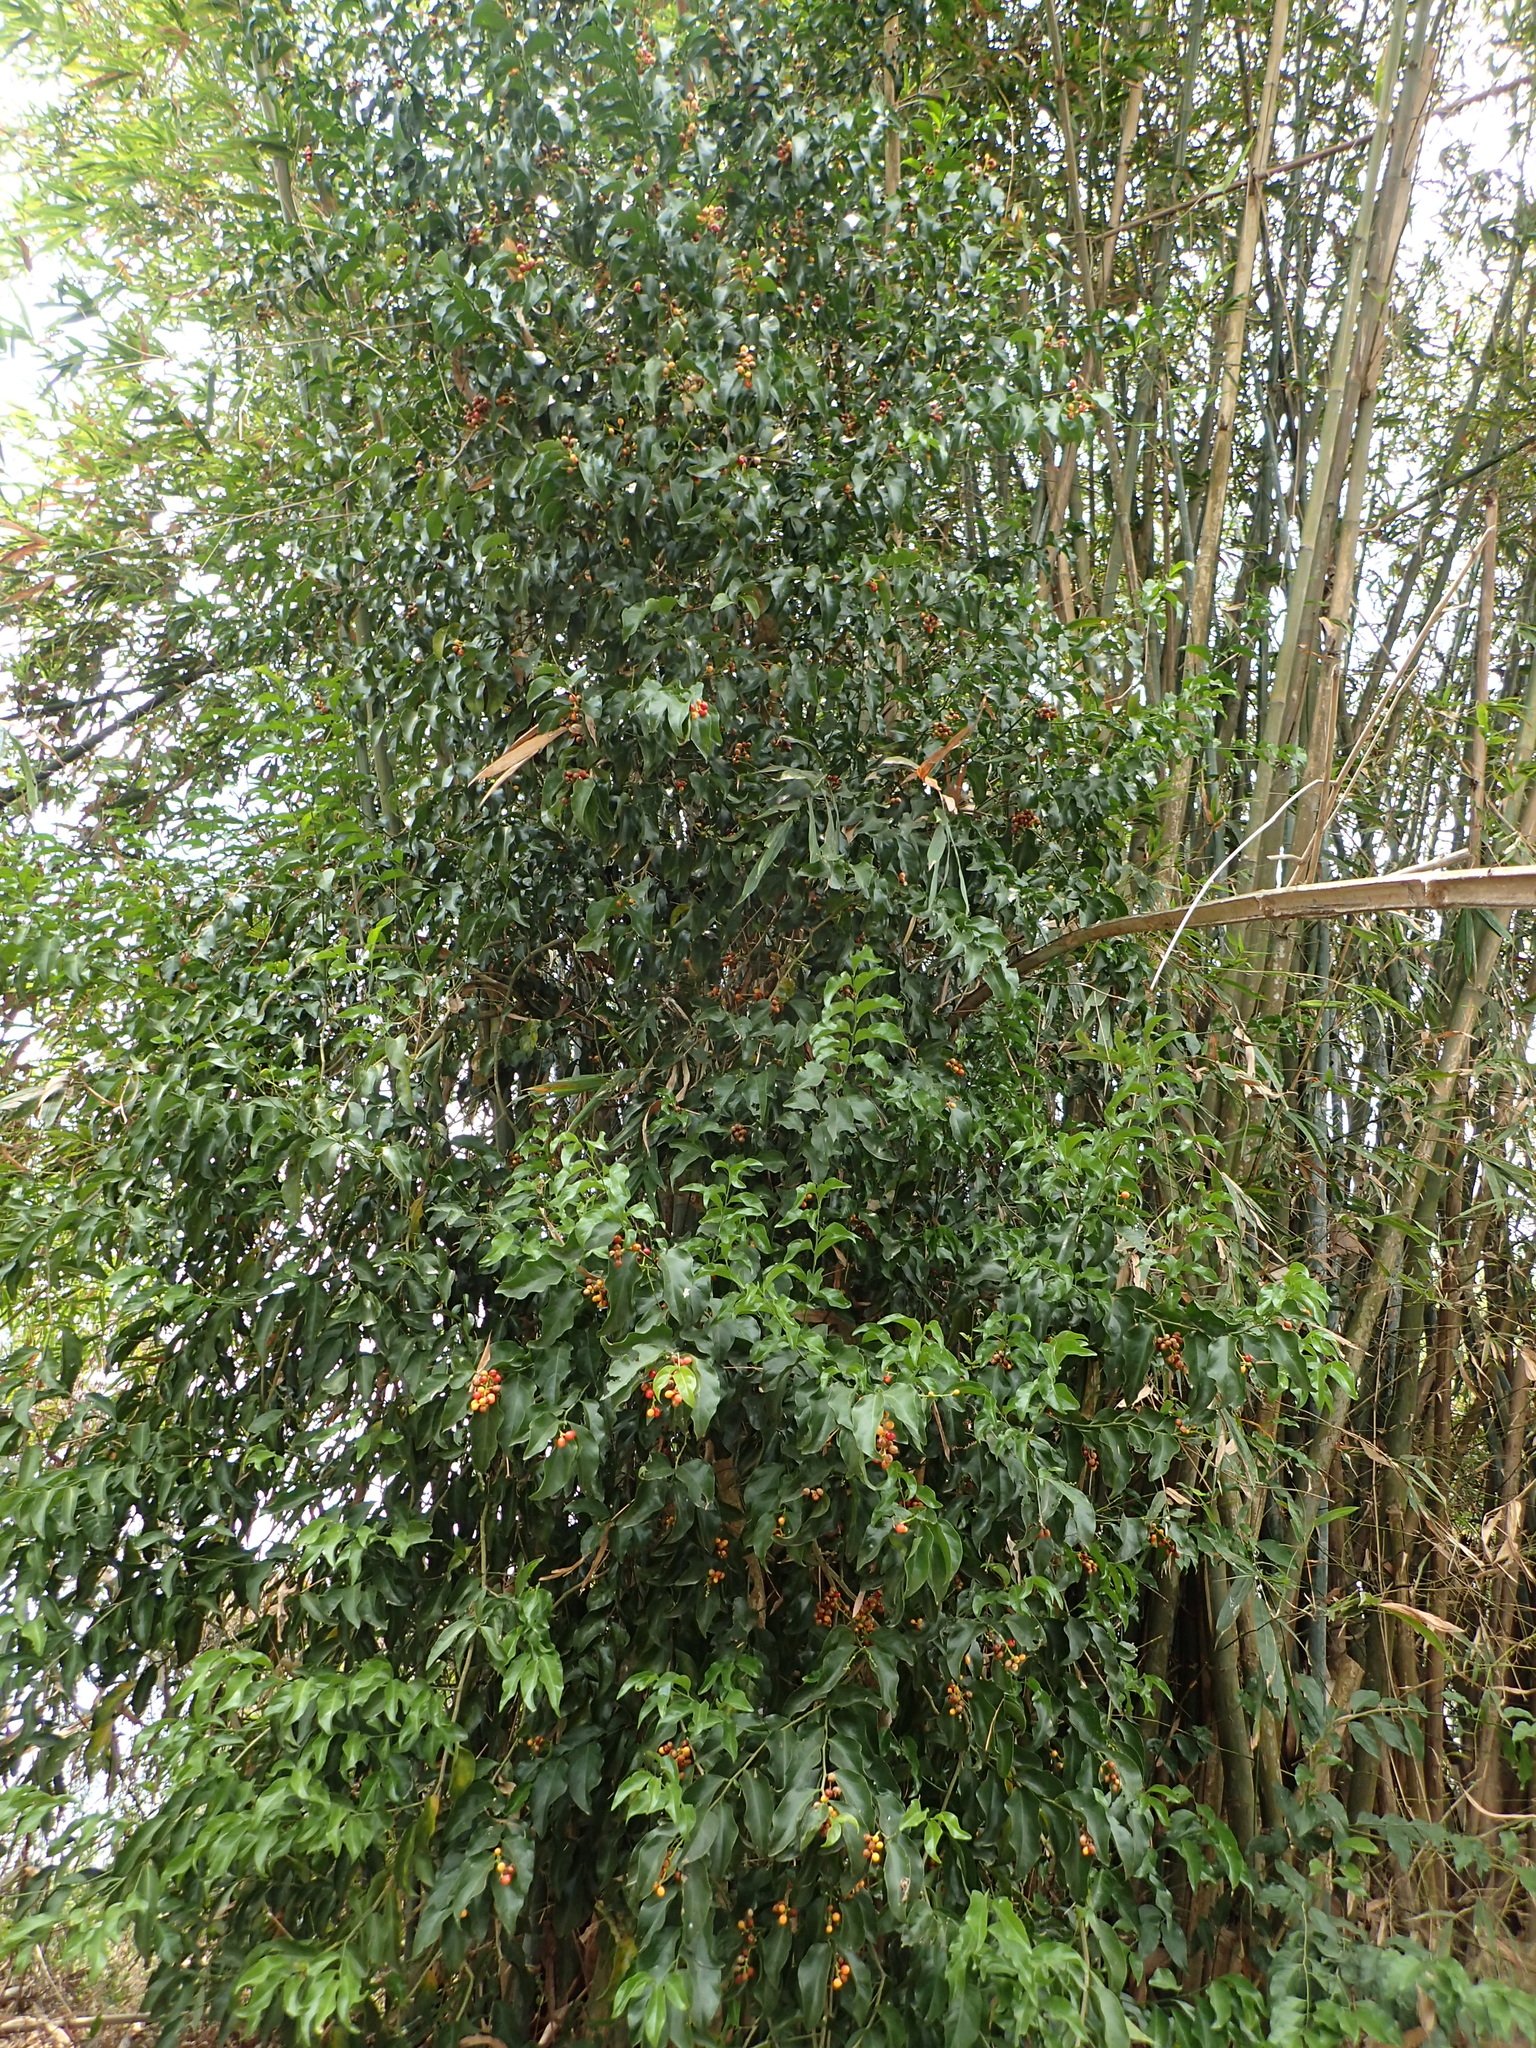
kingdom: Plantae
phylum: Tracheophyta
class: Magnoliopsida
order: Santalales
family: Opiliaceae
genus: Champereia
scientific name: Champereia manillana
